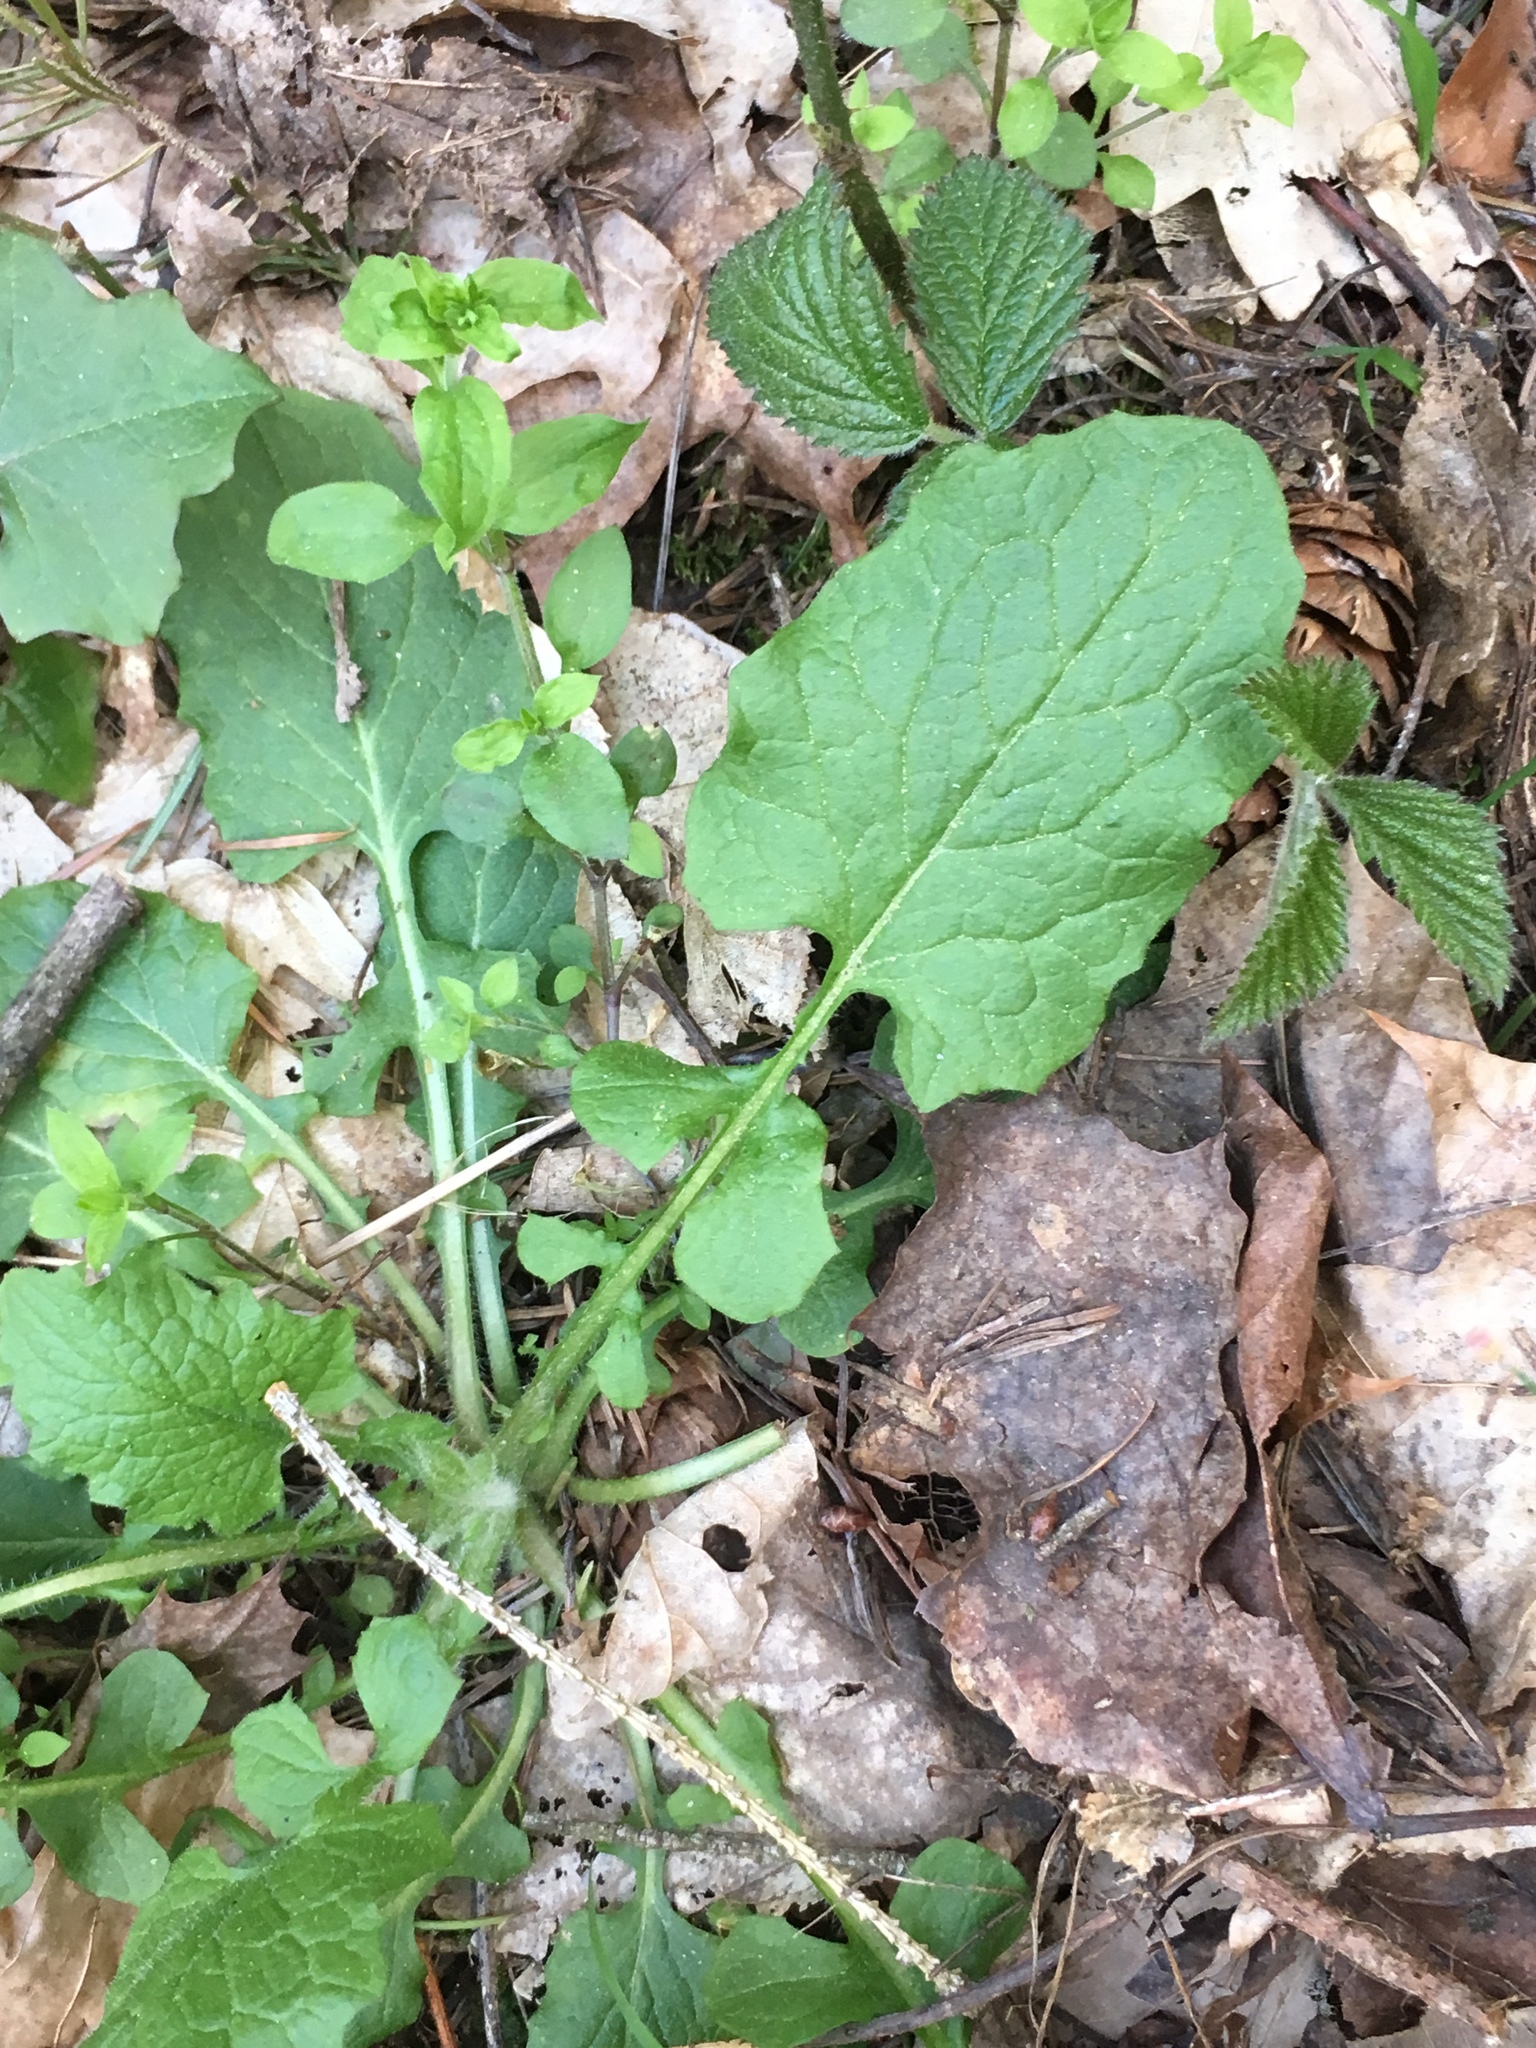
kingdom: Plantae
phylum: Tracheophyta
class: Magnoliopsida
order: Asterales
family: Asteraceae
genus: Lapsana
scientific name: Lapsana communis
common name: Nipplewort
